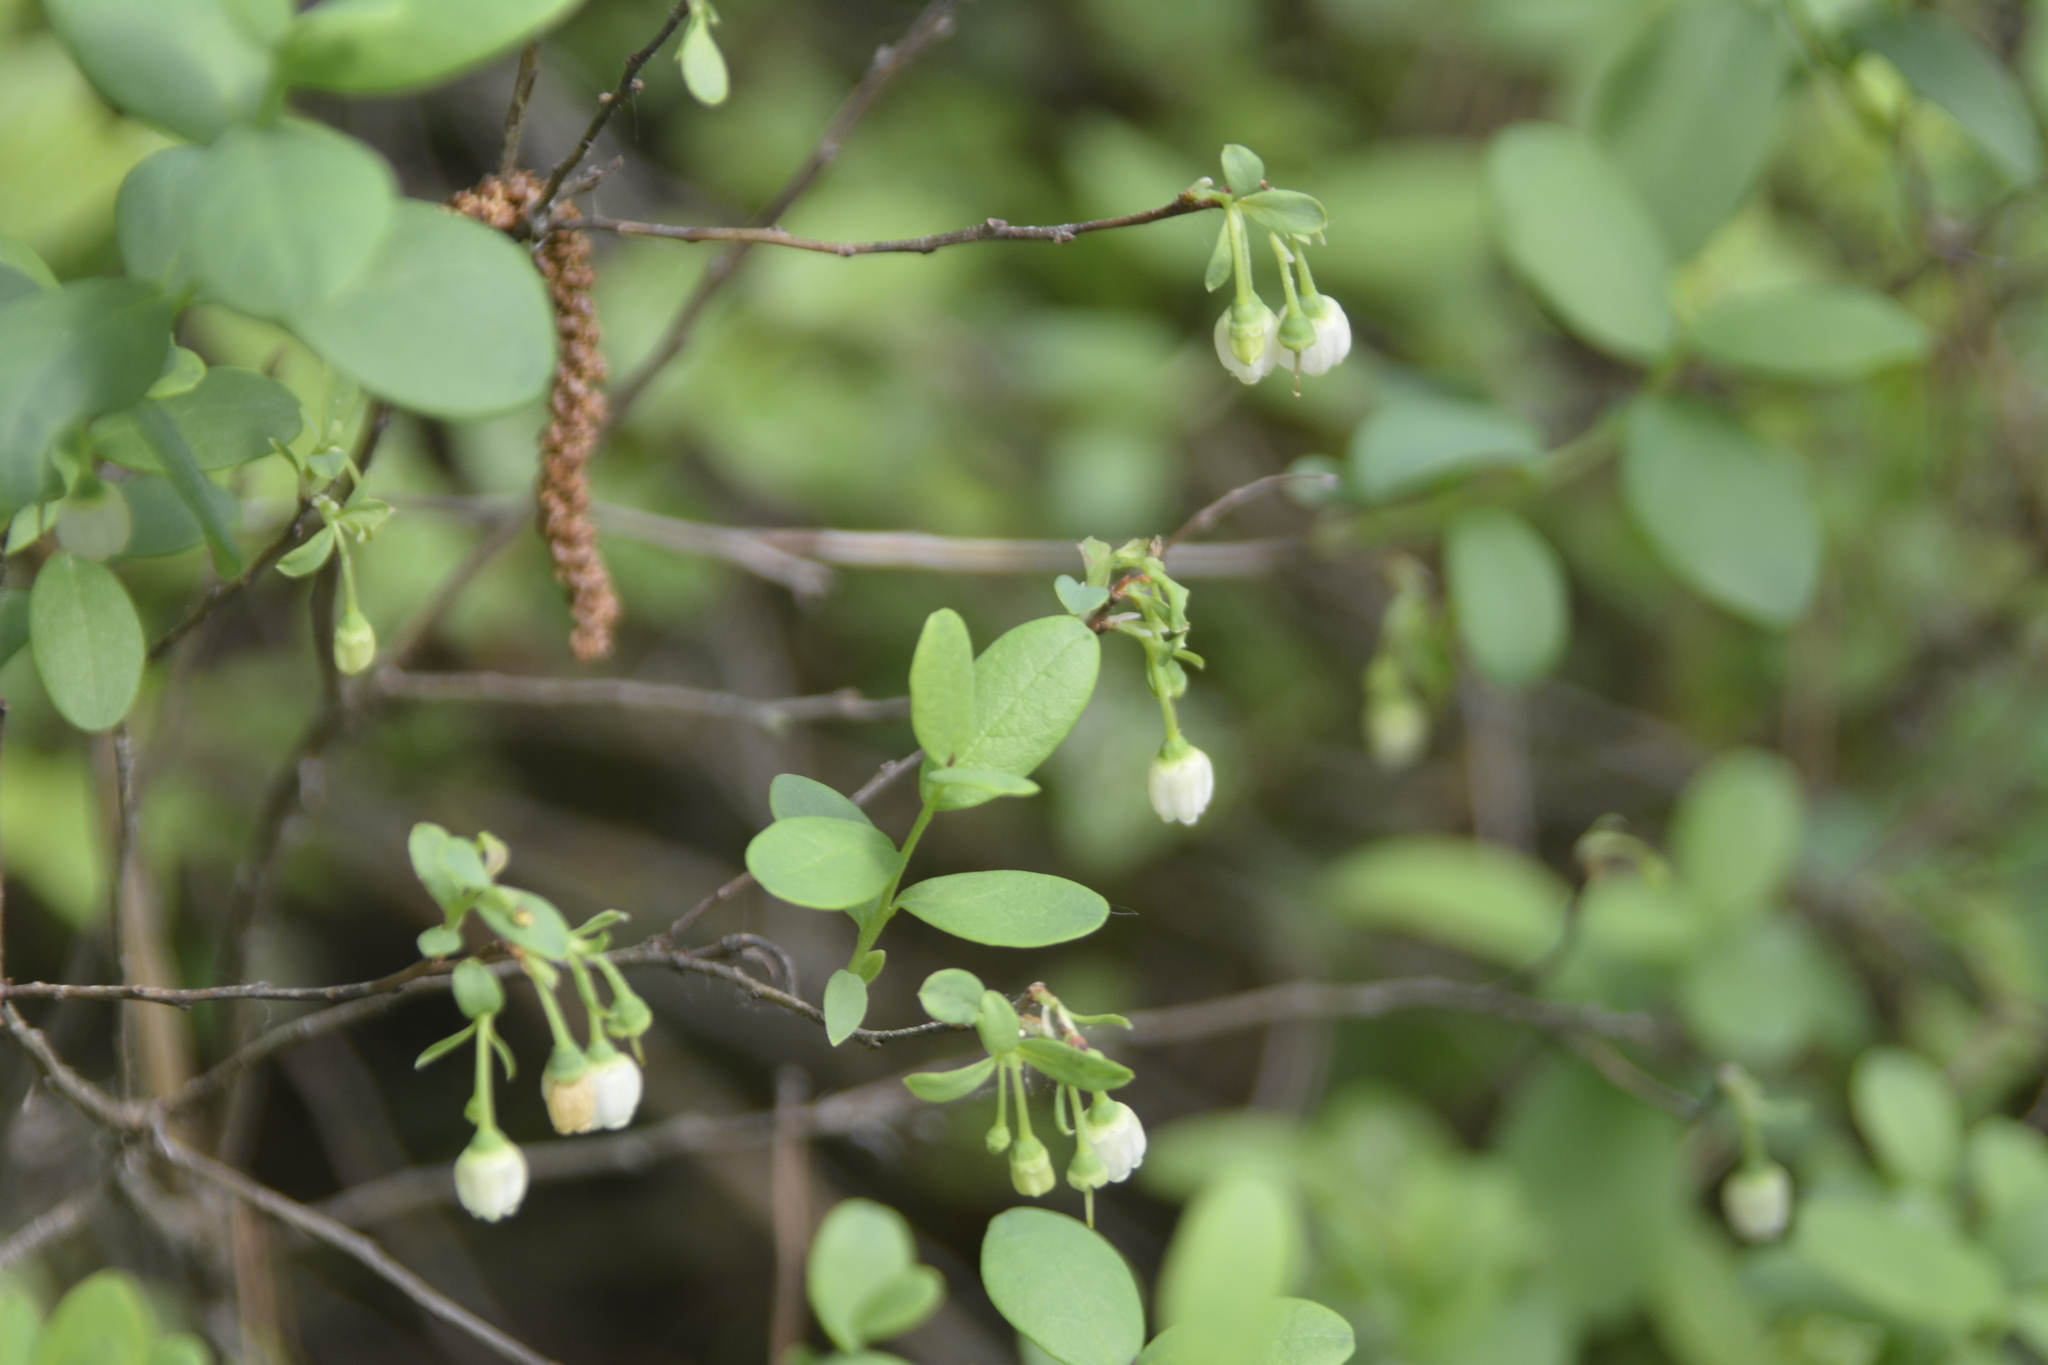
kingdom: Plantae
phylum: Tracheophyta
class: Magnoliopsida
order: Ericales
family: Ericaceae
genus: Vaccinium
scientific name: Vaccinium uliginosum
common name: Bog bilberry
